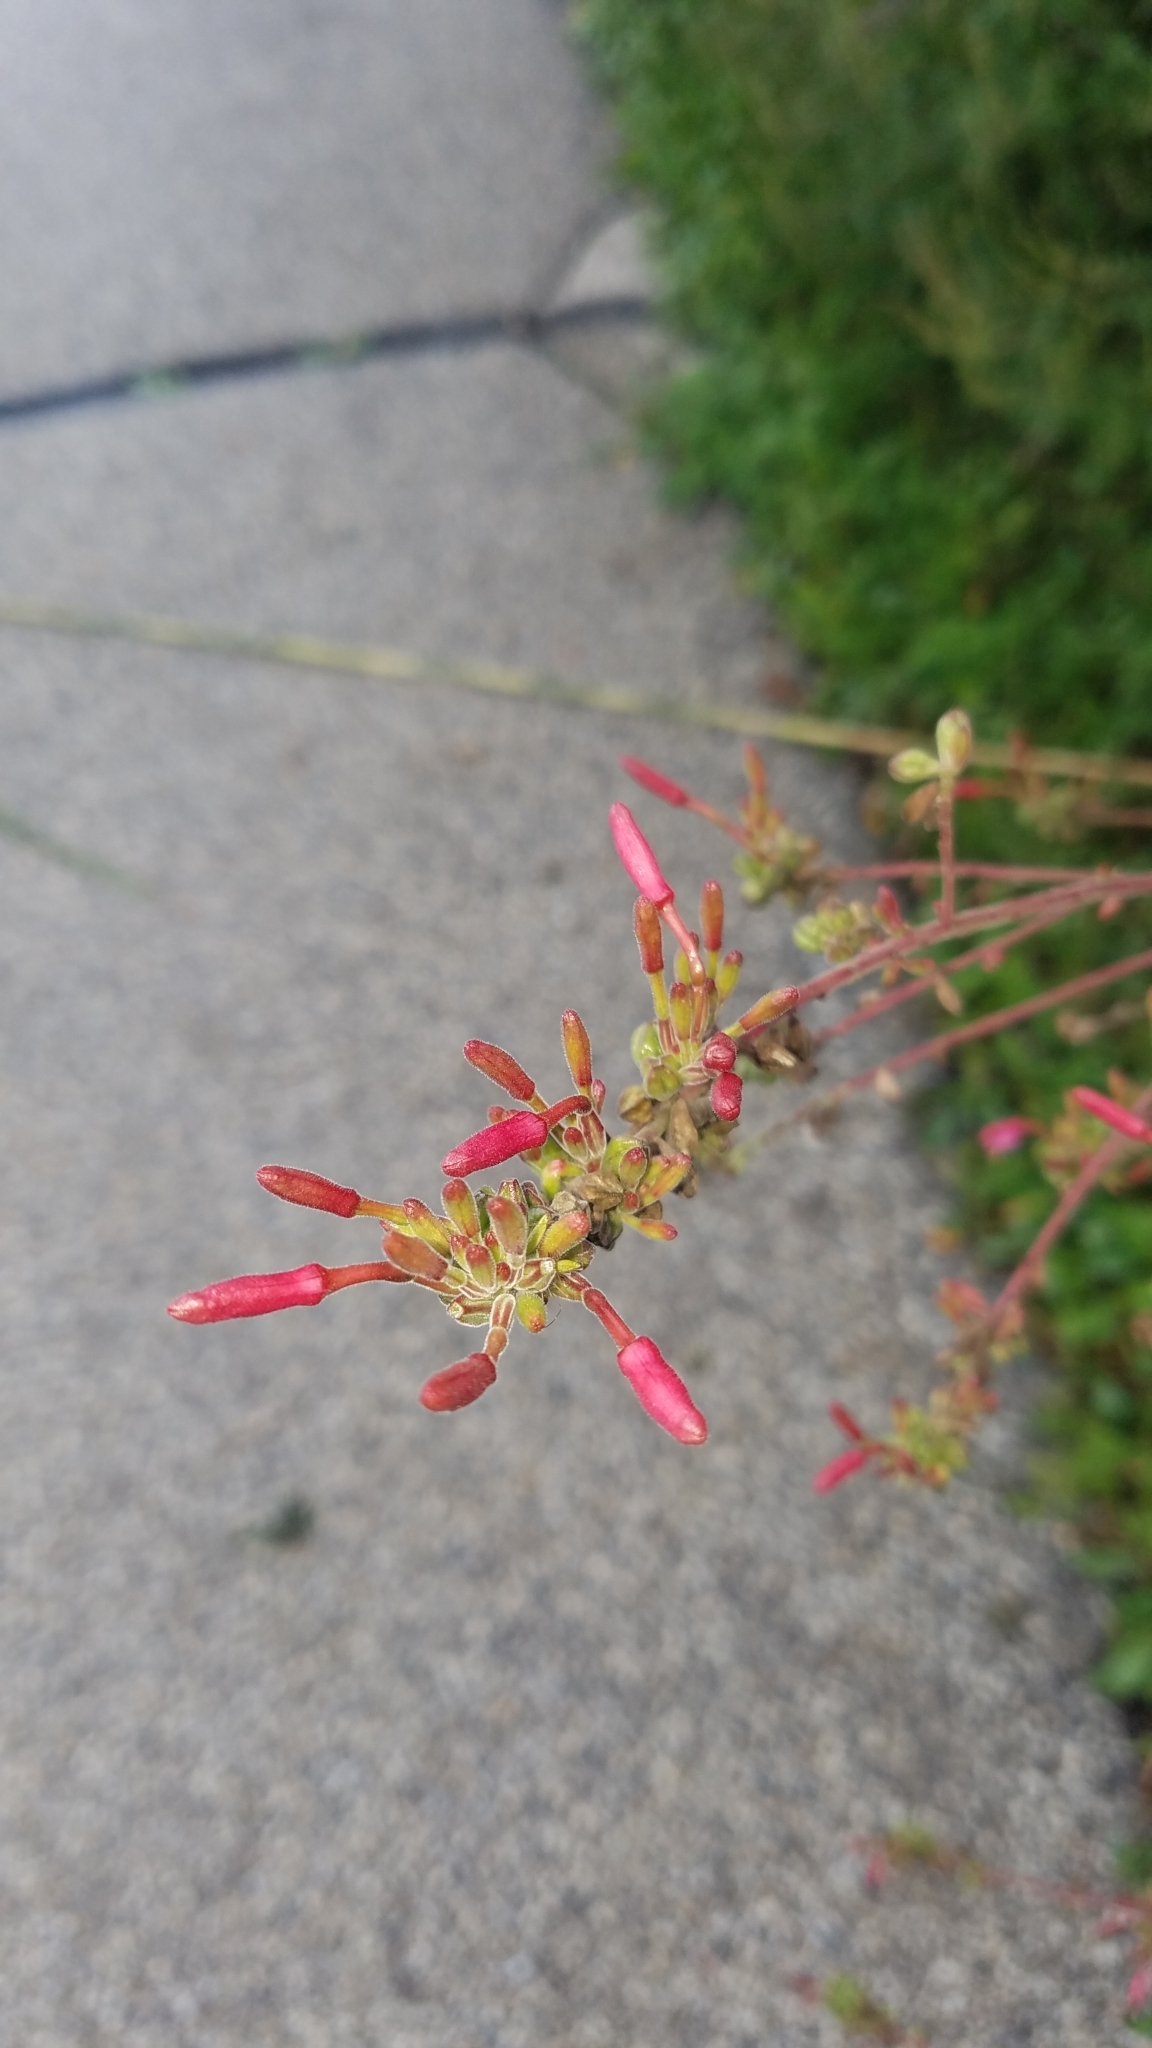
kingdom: Plantae
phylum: Tracheophyta
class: Magnoliopsida
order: Myrtales
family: Onagraceae
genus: Oenothera
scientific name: Oenothera gaura
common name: Biennial beeblossom
